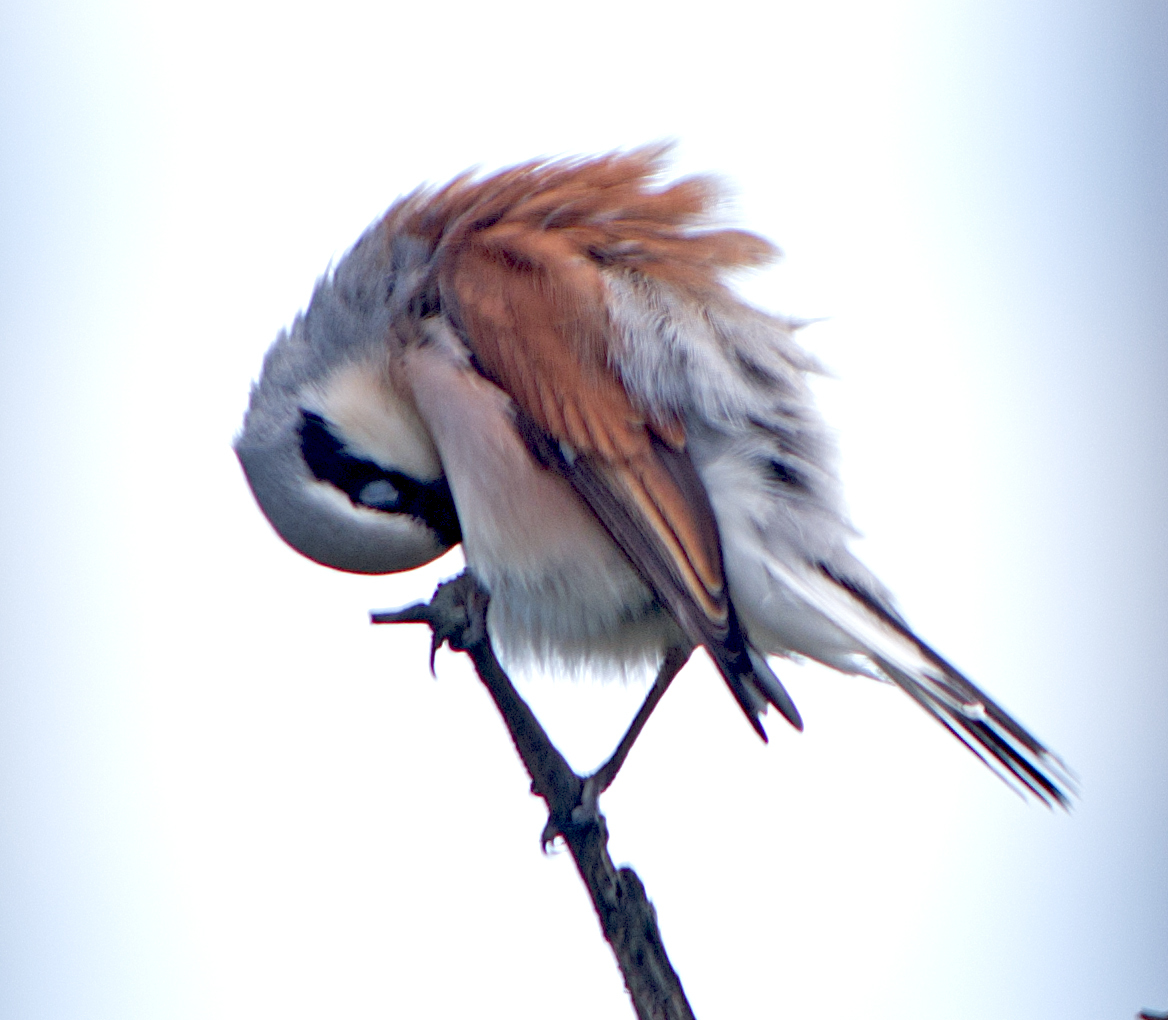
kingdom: Animalia
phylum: Chordata
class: Aves
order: Passeriformes
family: Laniidae
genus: Lanius
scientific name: Lanius collurio
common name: Red-backed shrike
